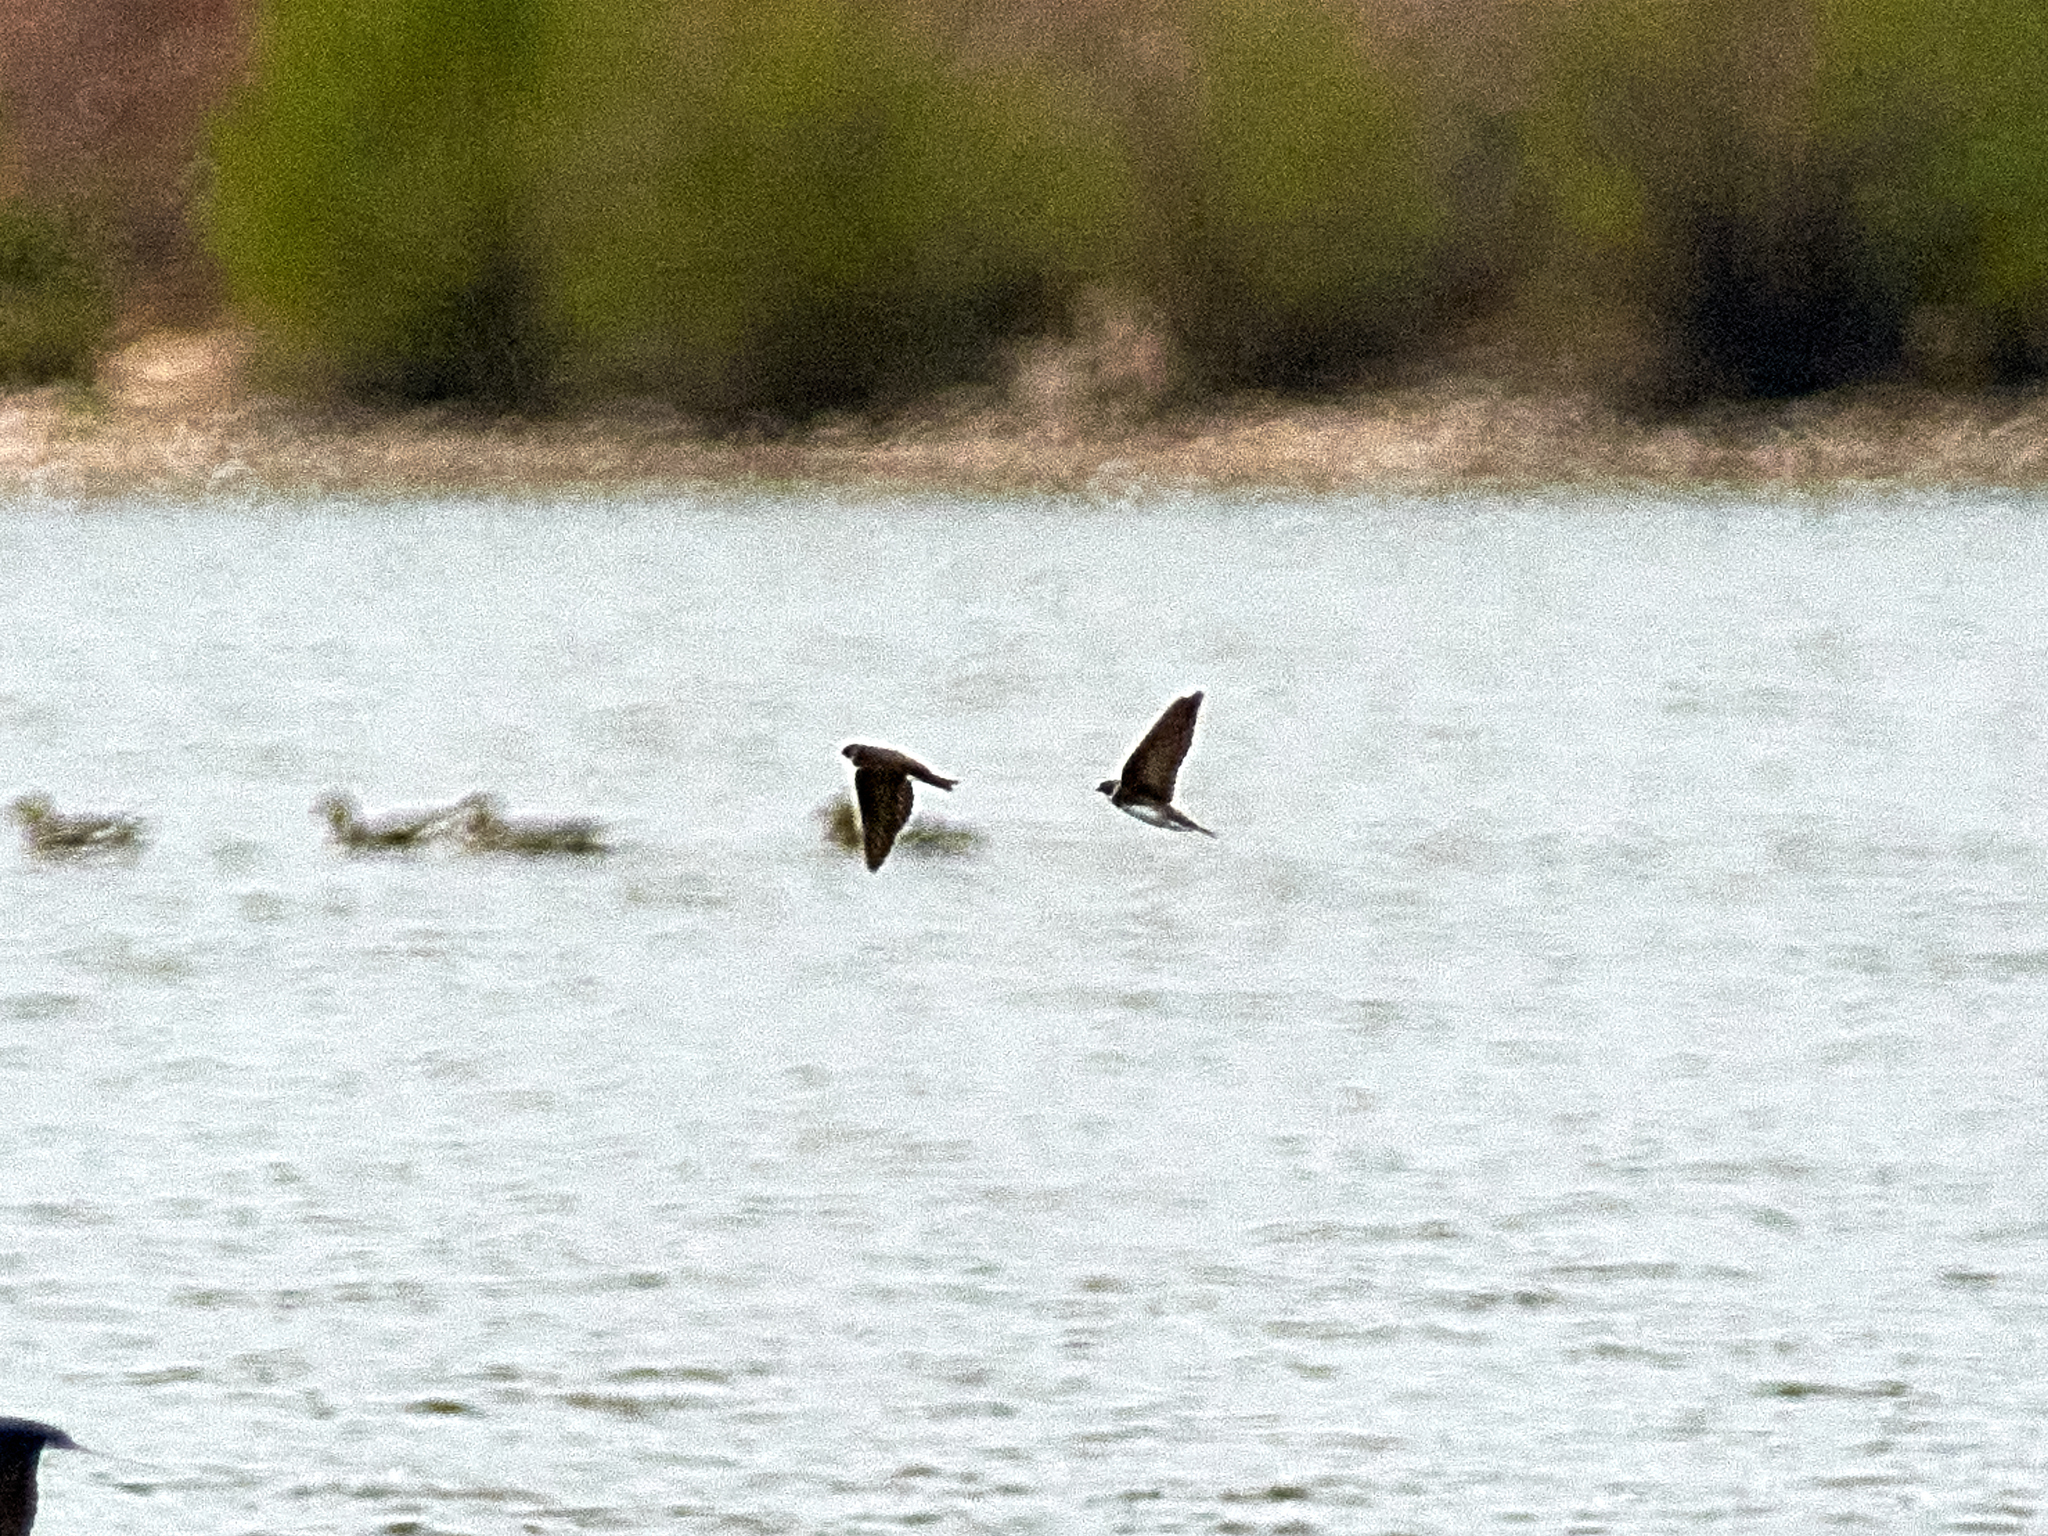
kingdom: Animalia
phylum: Chordata
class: Aves
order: Passeriformes
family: Hirundinidae
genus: Riparia
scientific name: Riparia riparia
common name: Sand martin
